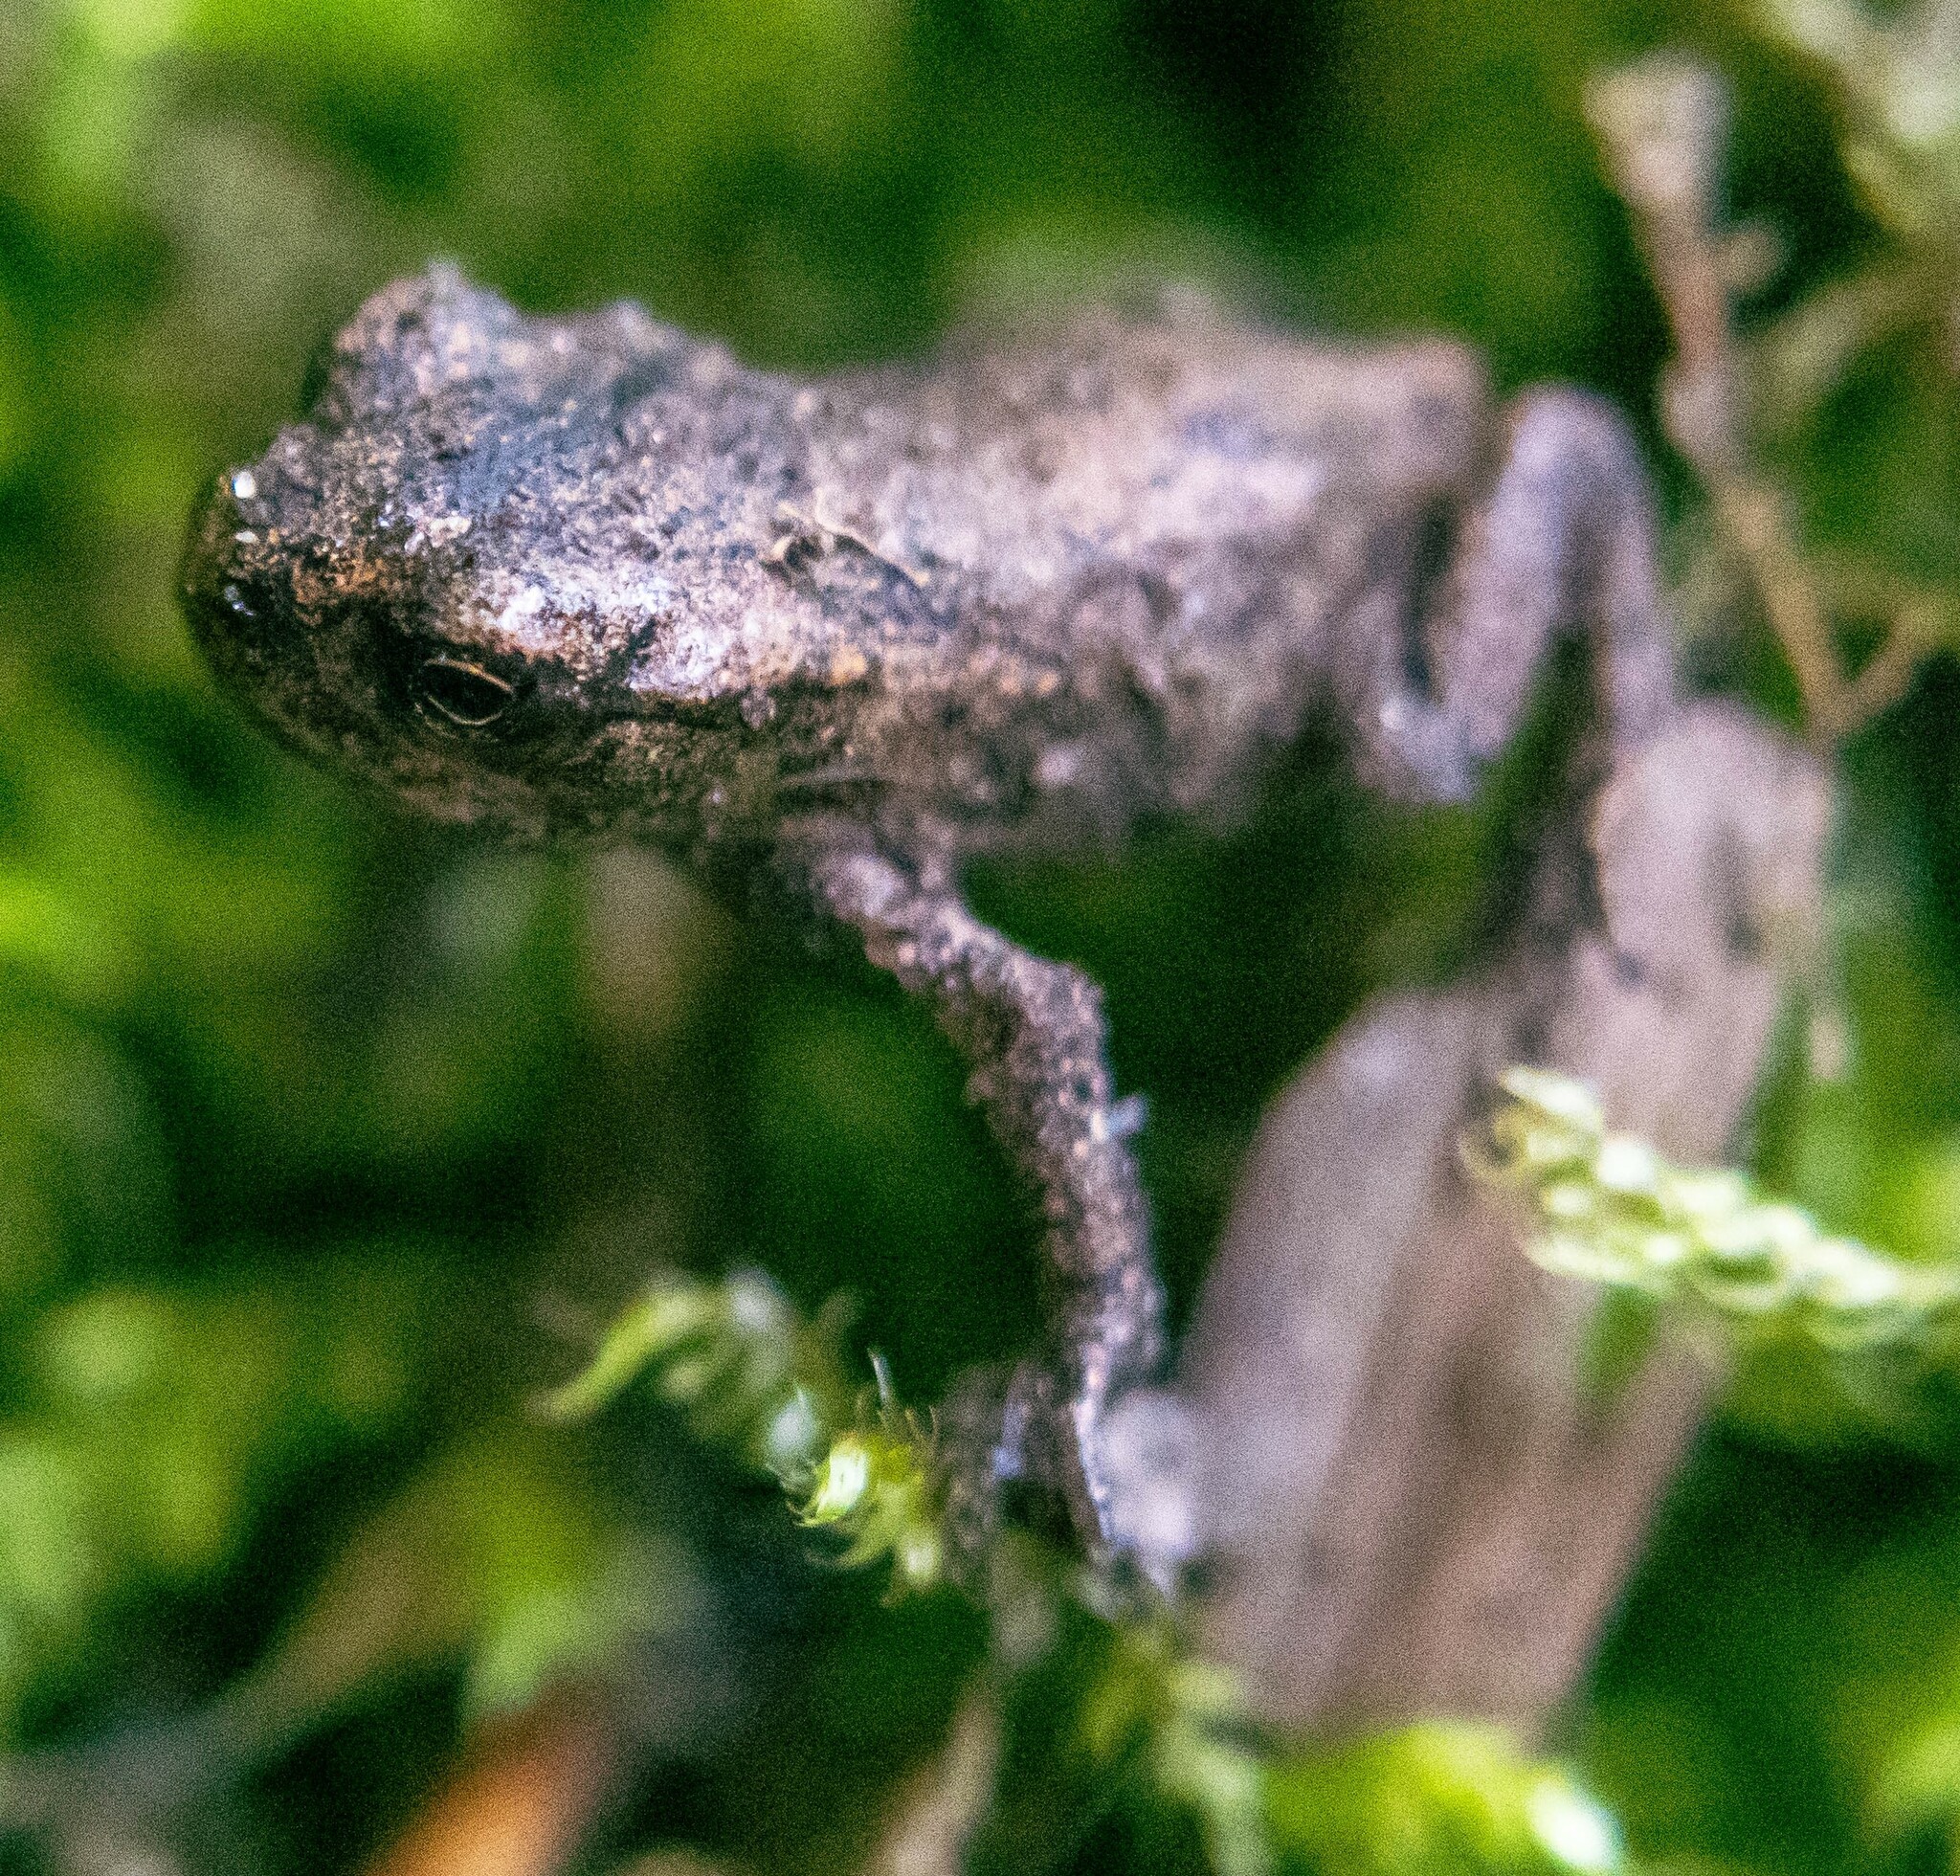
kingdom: Animalia
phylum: Chordata
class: Amphibia
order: Anura
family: Bufonidae
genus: Bufo
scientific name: Bufo bufo
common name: Common toad
